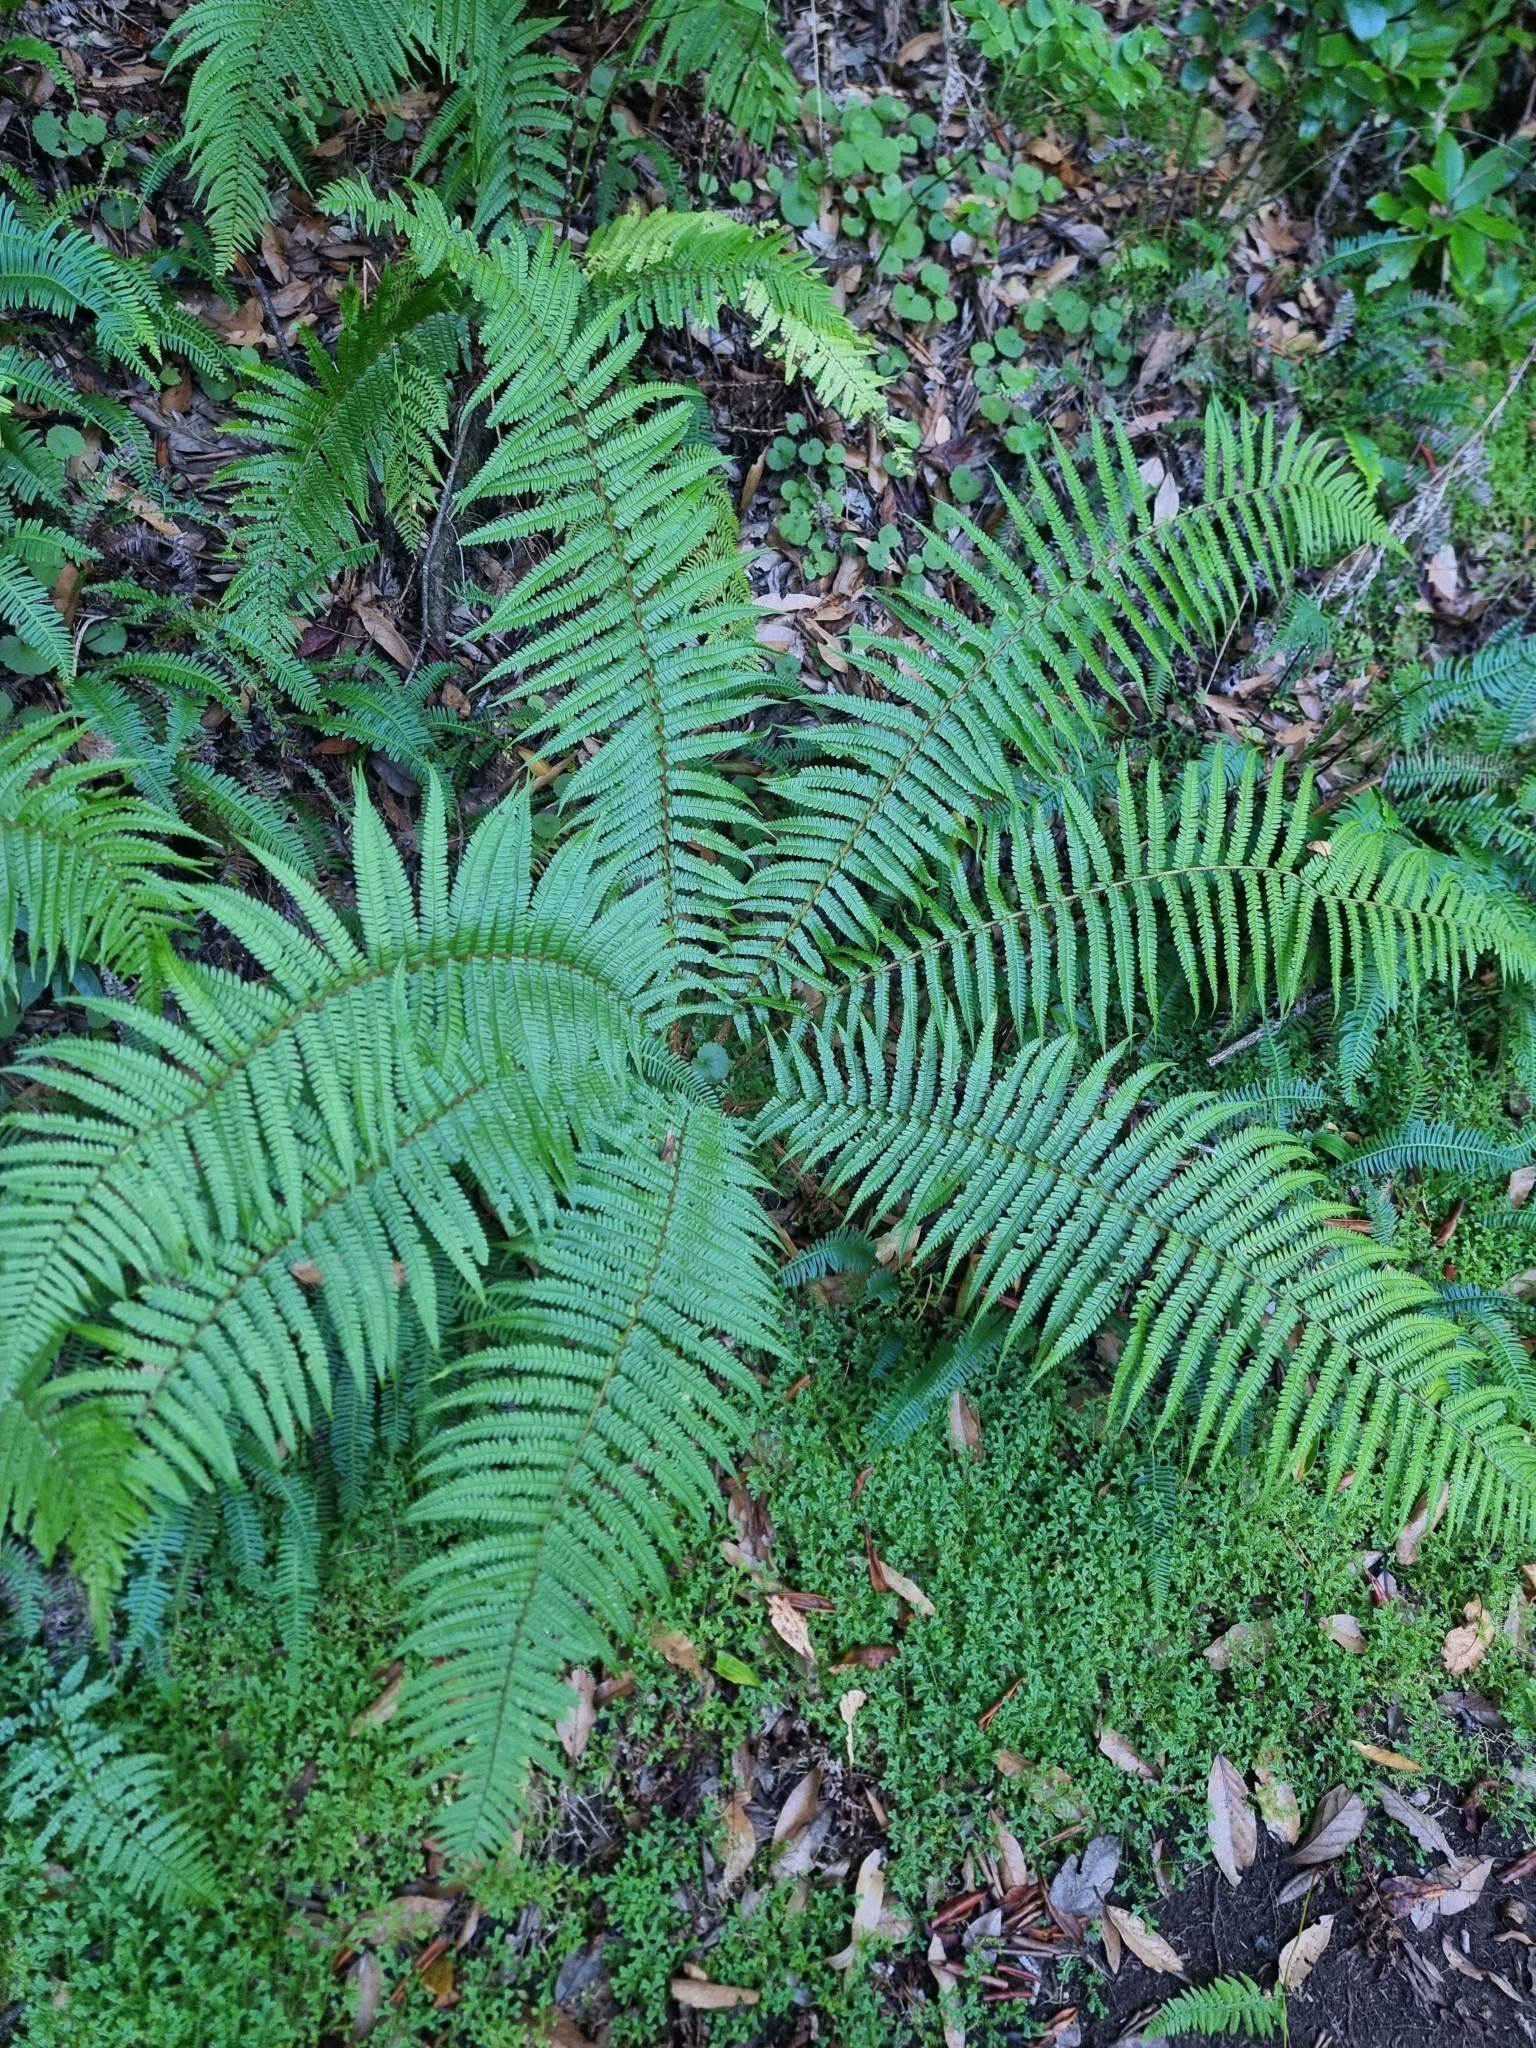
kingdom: Plantae
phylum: Tracheophyta
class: Polypodiopsida
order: Polypodiales
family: Dryopteridaceae
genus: Dryopteris
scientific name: Dryopteris affinis
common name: Scaly male fern
